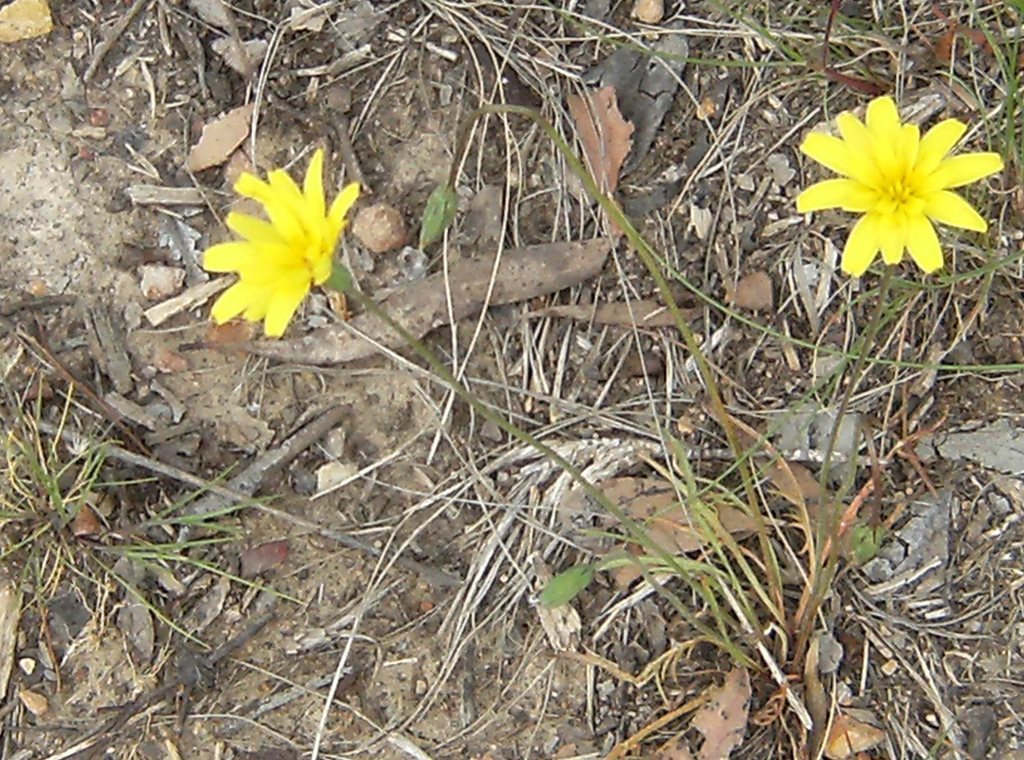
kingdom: Plantae
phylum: Tracheophyta
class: Magnoliopsida
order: Asterales
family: Asteraceae
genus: Microseris
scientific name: Microseris lanceolata
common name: Yam daisy
